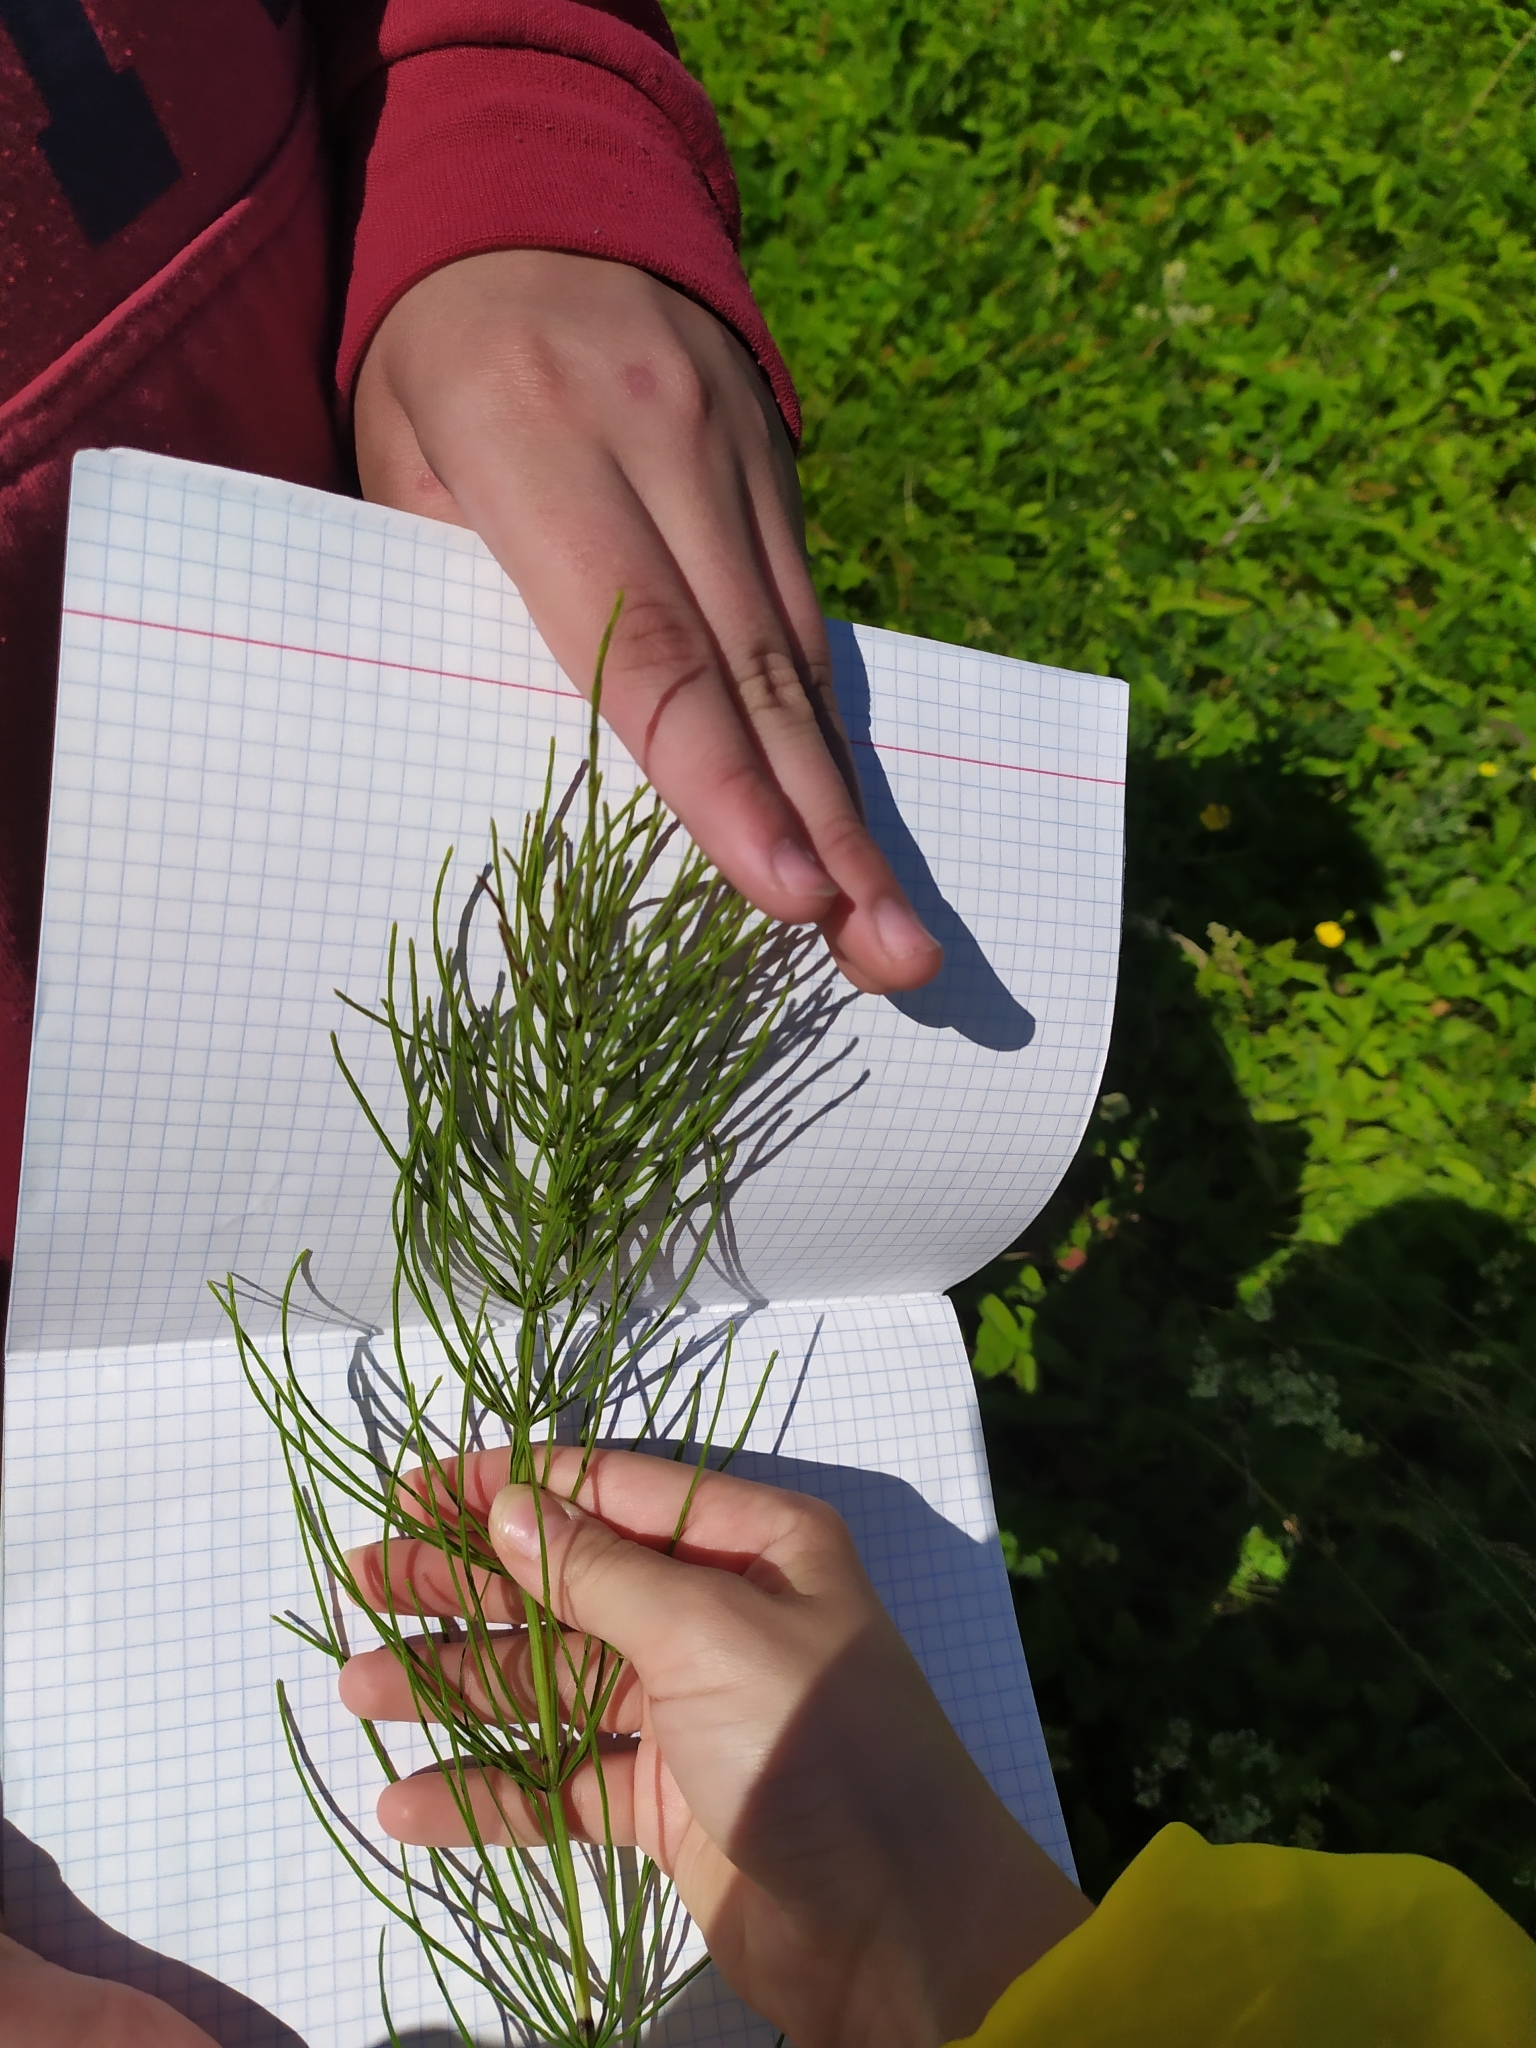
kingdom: Plantae
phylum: Tracheophyta
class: Polypodiopsida
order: Equisetales
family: Equisetaceae
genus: Equisetum
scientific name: Equisetum arvense
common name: Field horsetail
